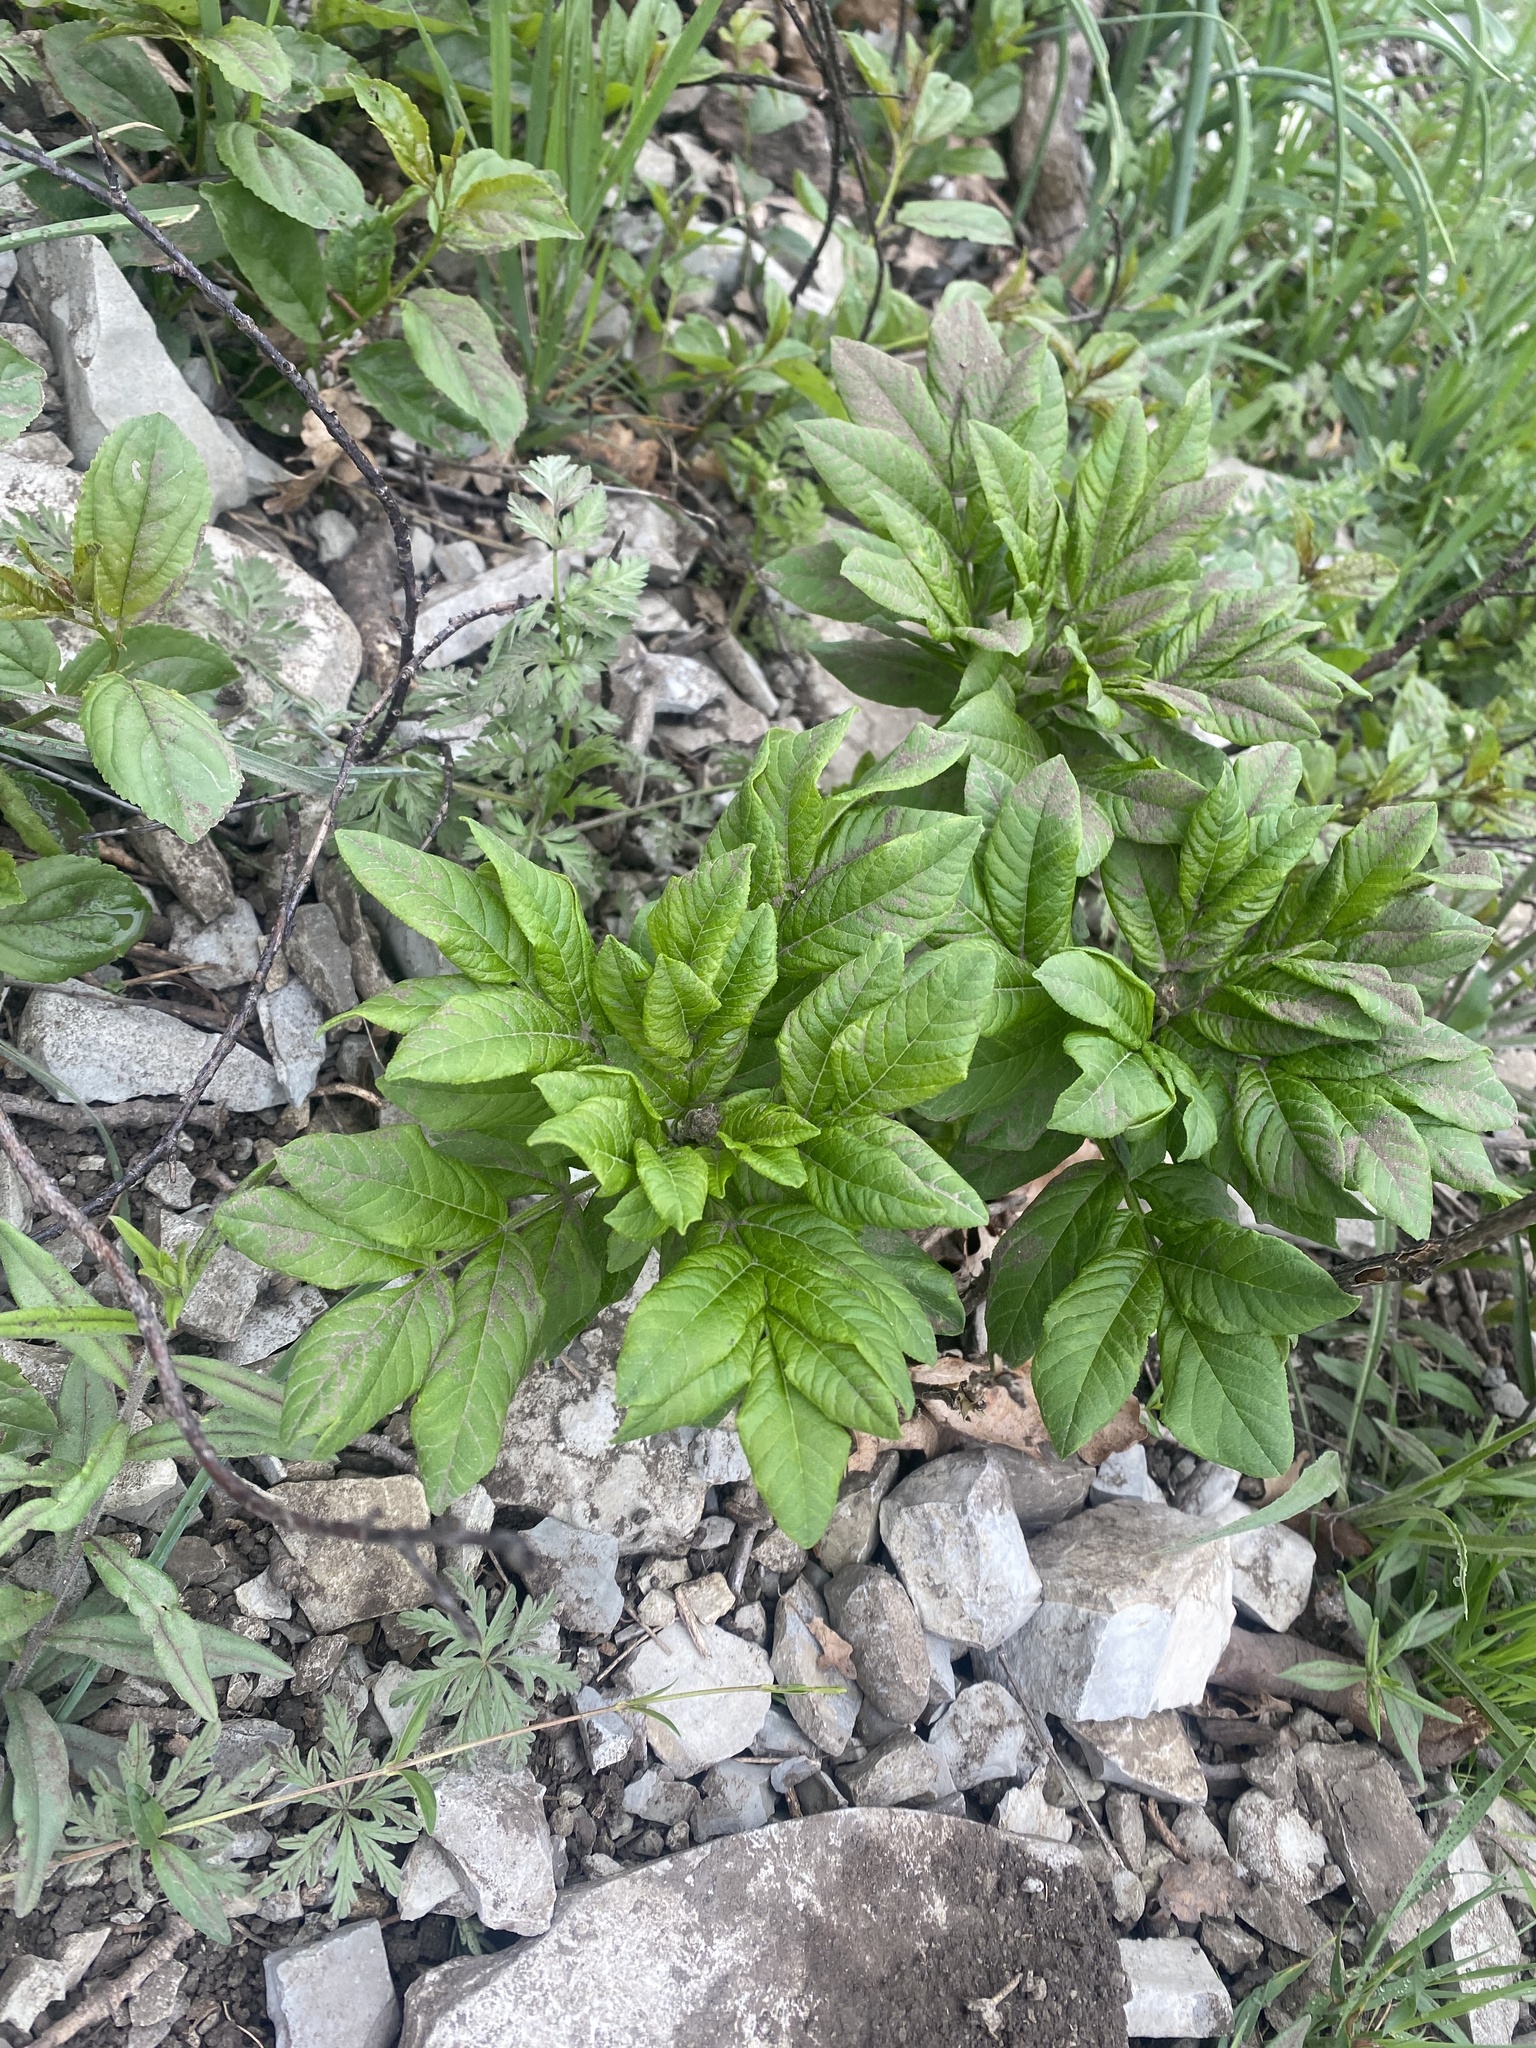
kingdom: Plantae
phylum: Tracheophyta
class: Magnoliopsida
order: Sapindales
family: Rutaceae
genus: Dictamnus
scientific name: Dictamnus albus
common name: Gasplant
